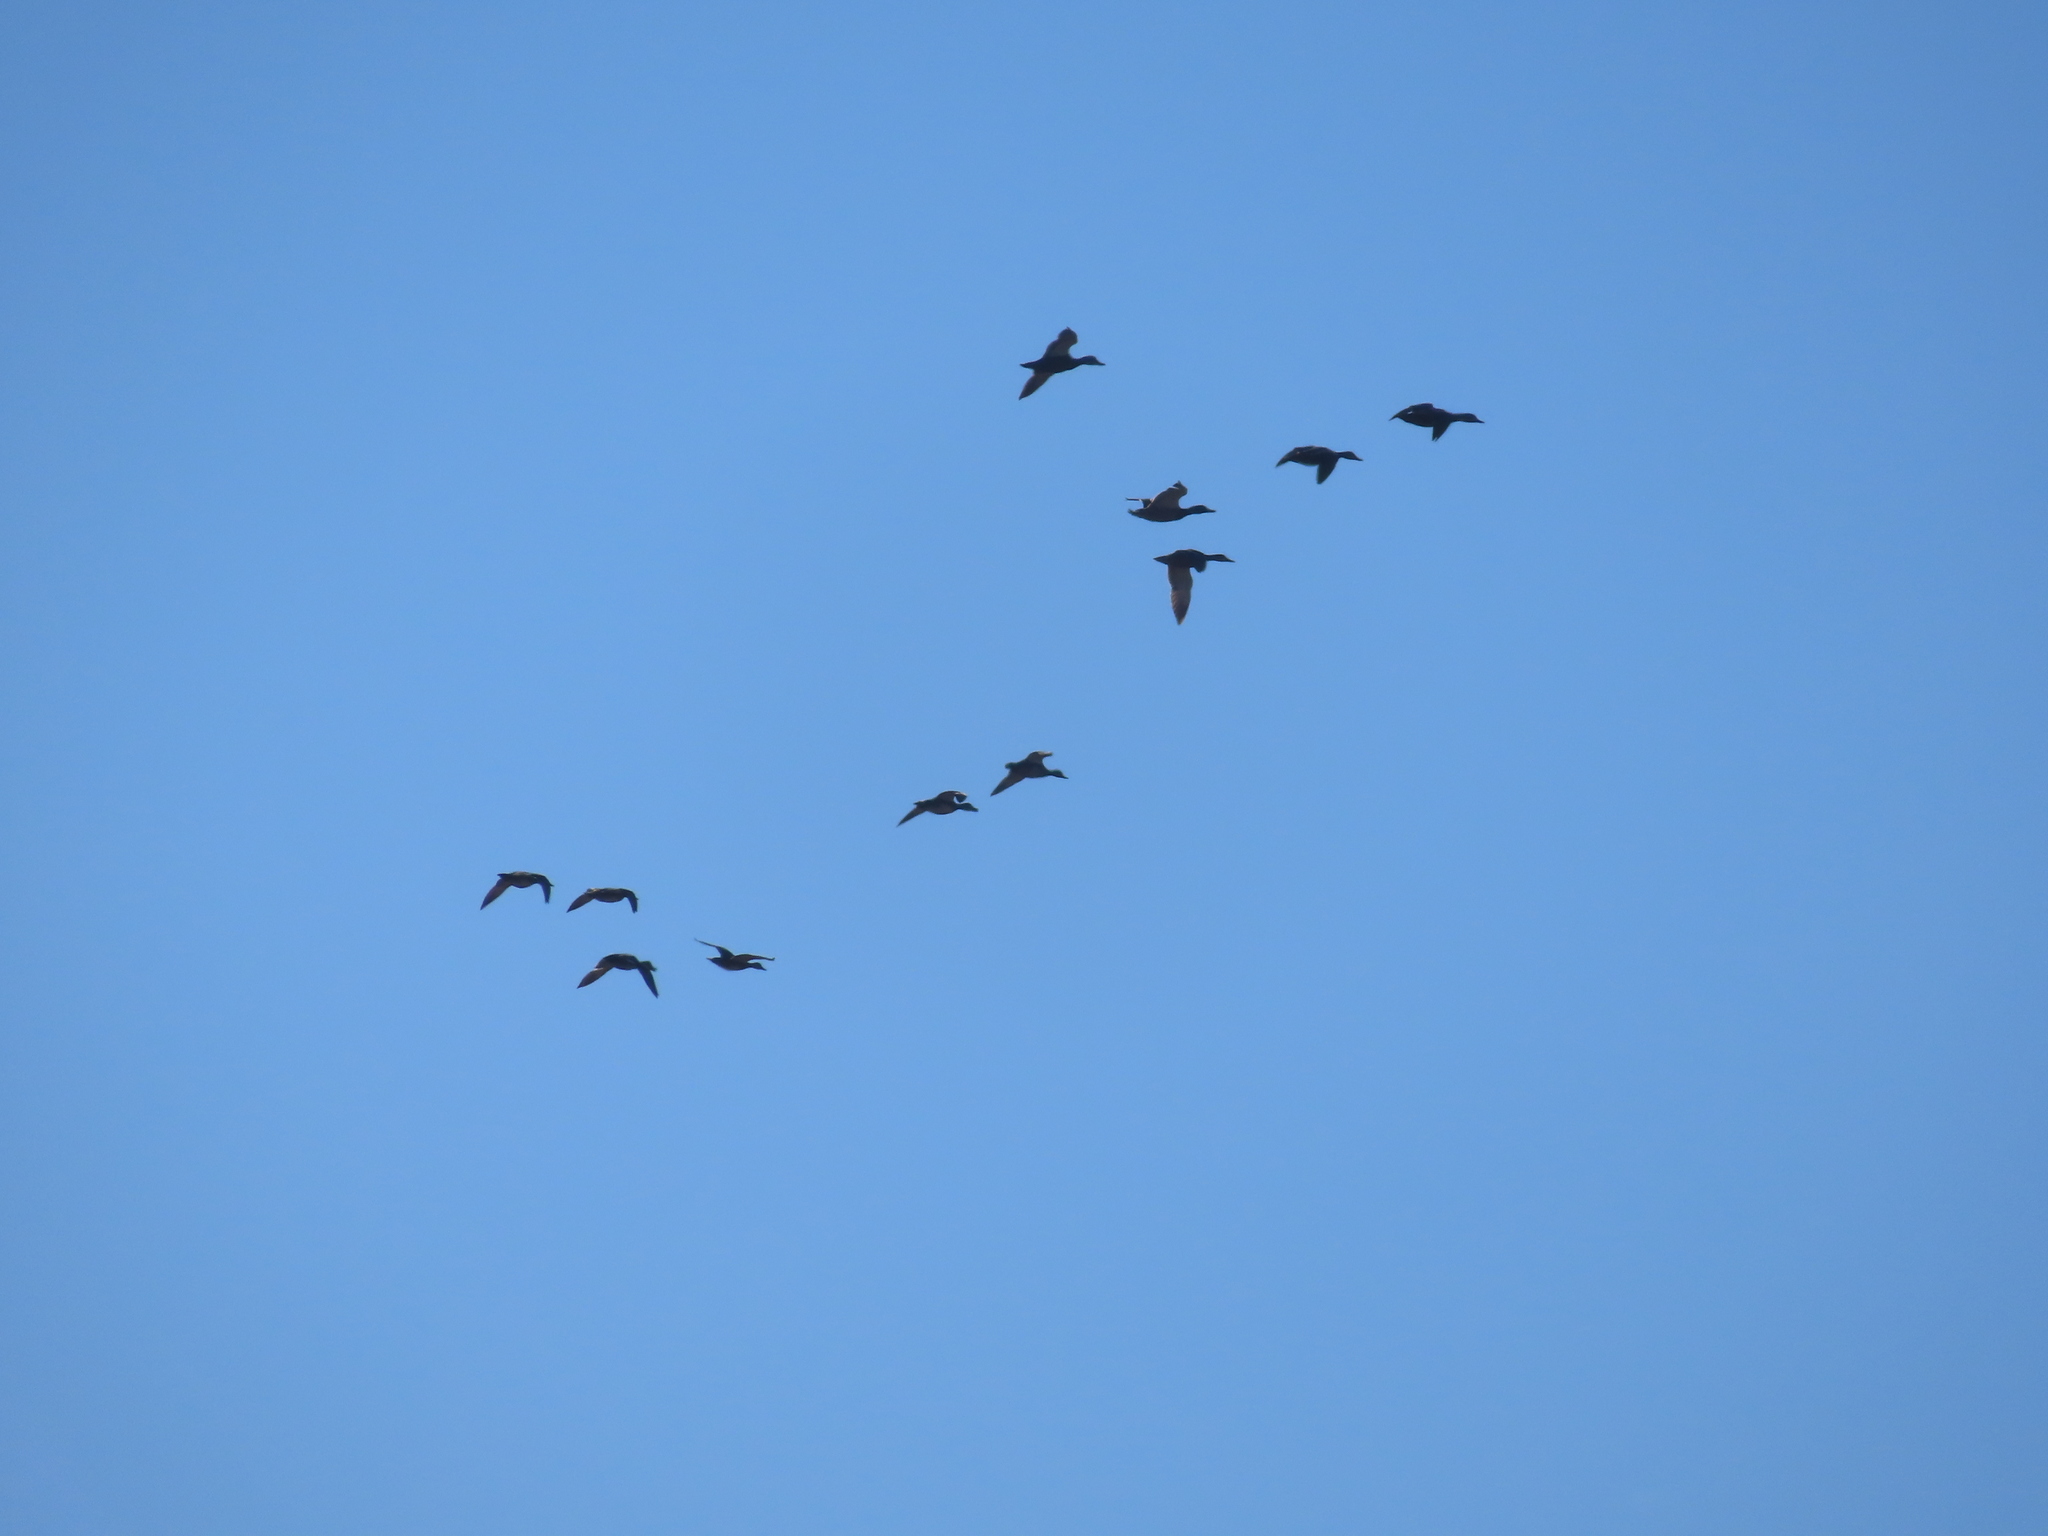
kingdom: Animalia
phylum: Chordata
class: Aves
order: Anseriformes
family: Anatidae
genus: Branta
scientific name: Branta canadensis
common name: Canada goose
